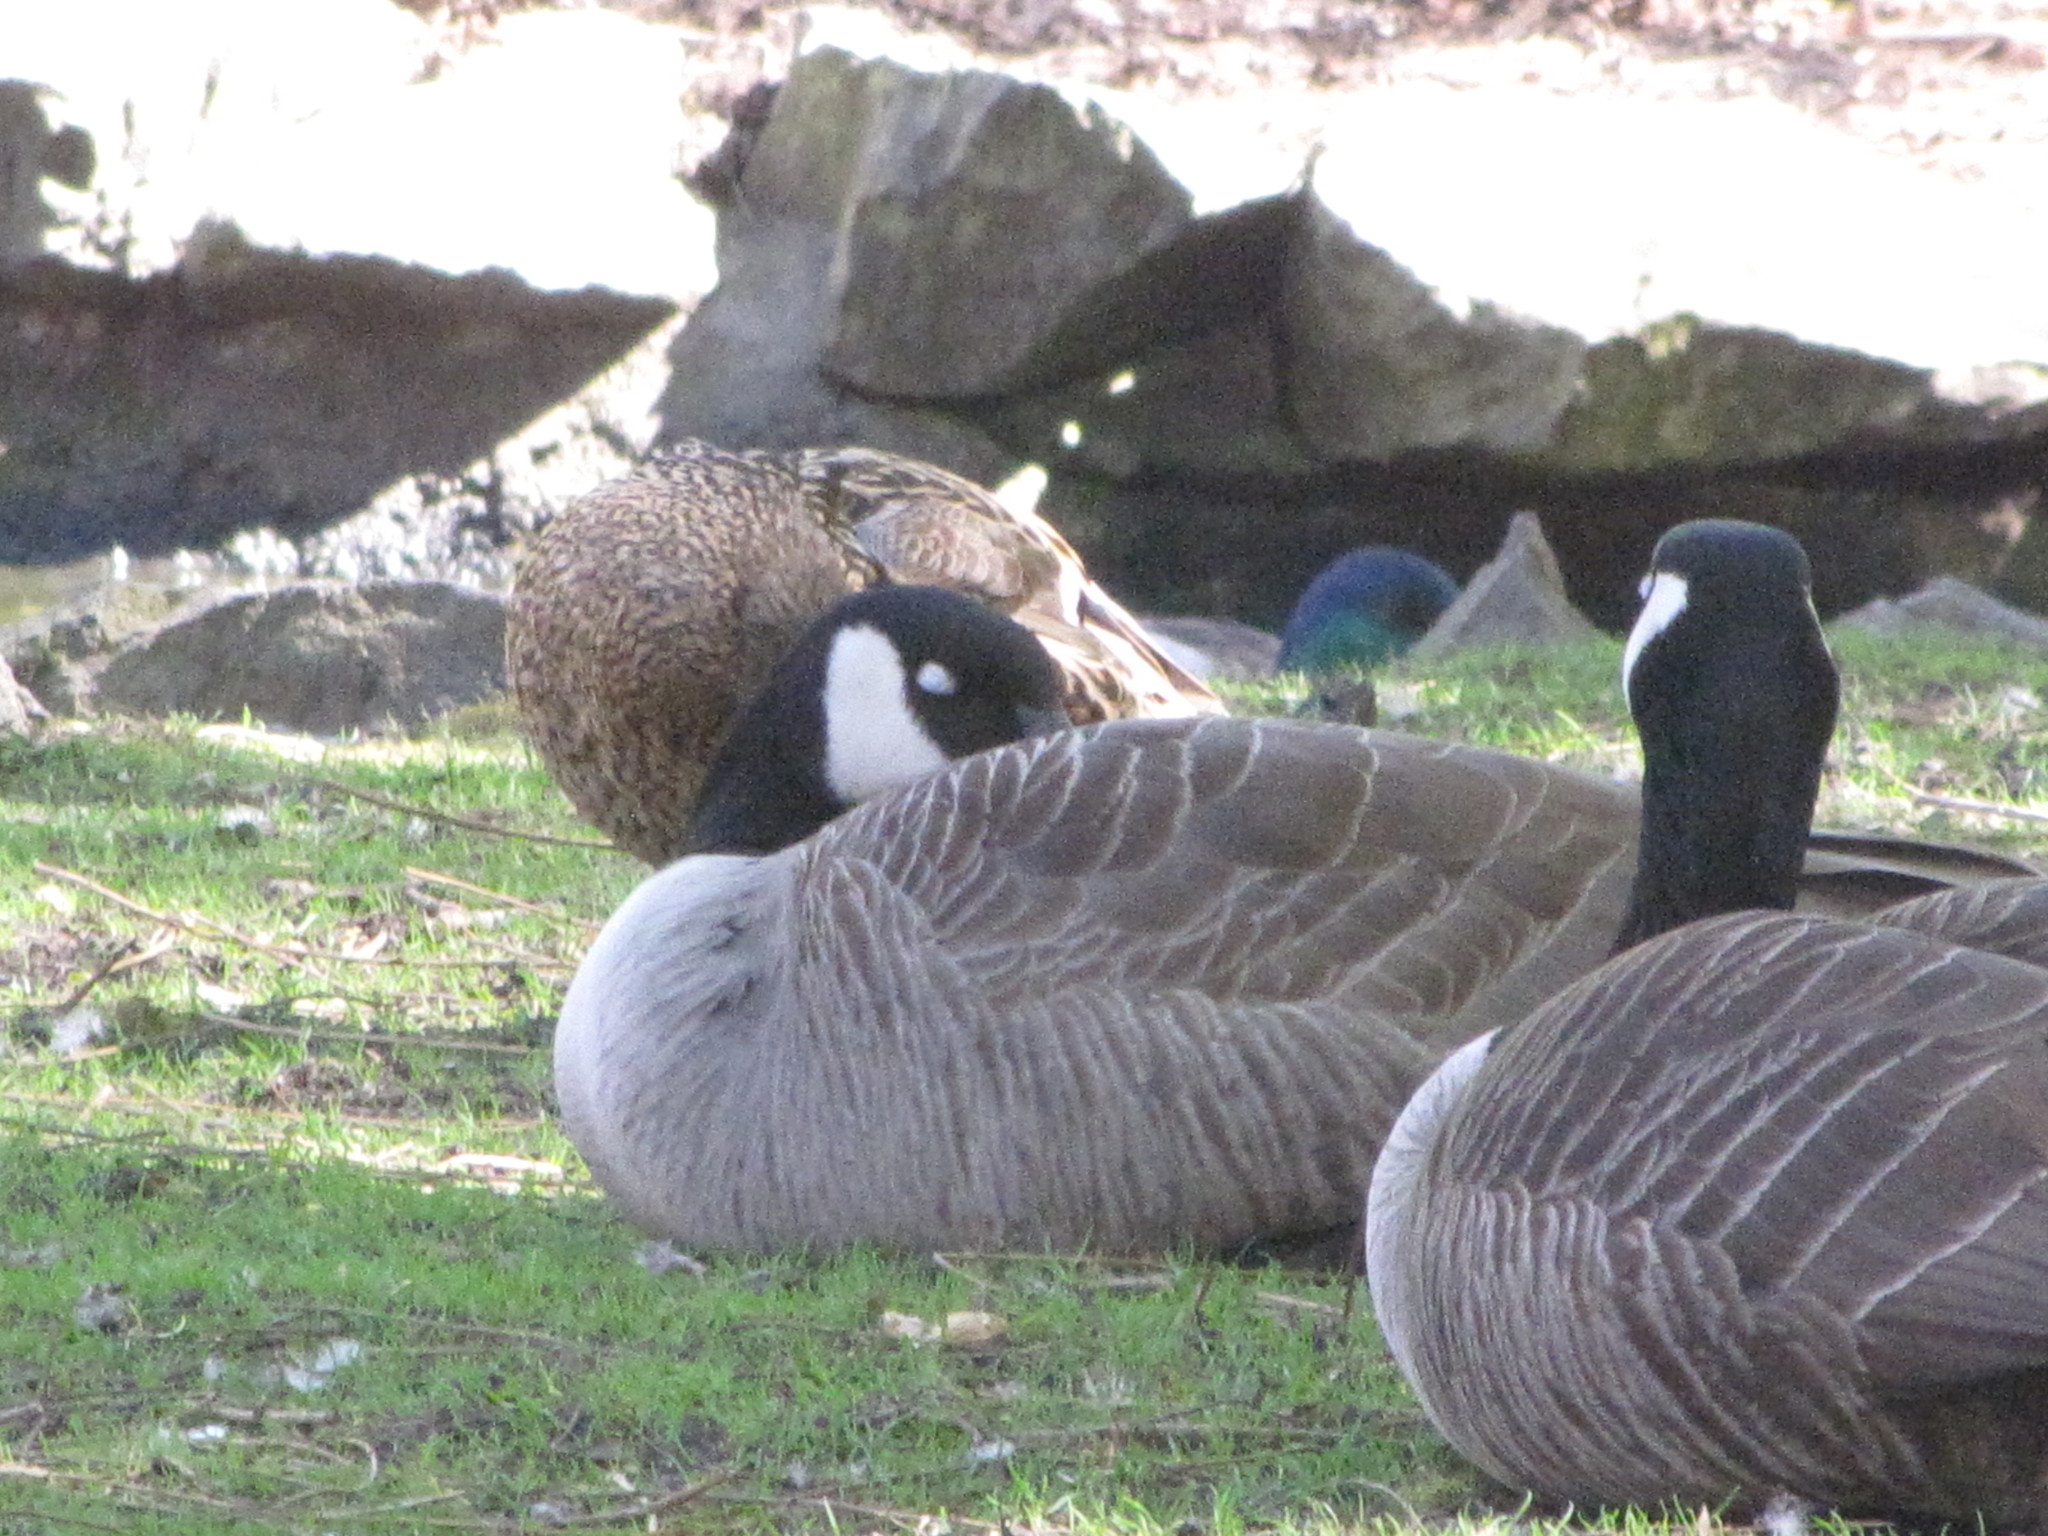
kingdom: Animalia
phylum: Chordata
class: Aves
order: Anseriformes
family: Anatidae
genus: Branta
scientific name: Branta canadensis
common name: Canada goose
